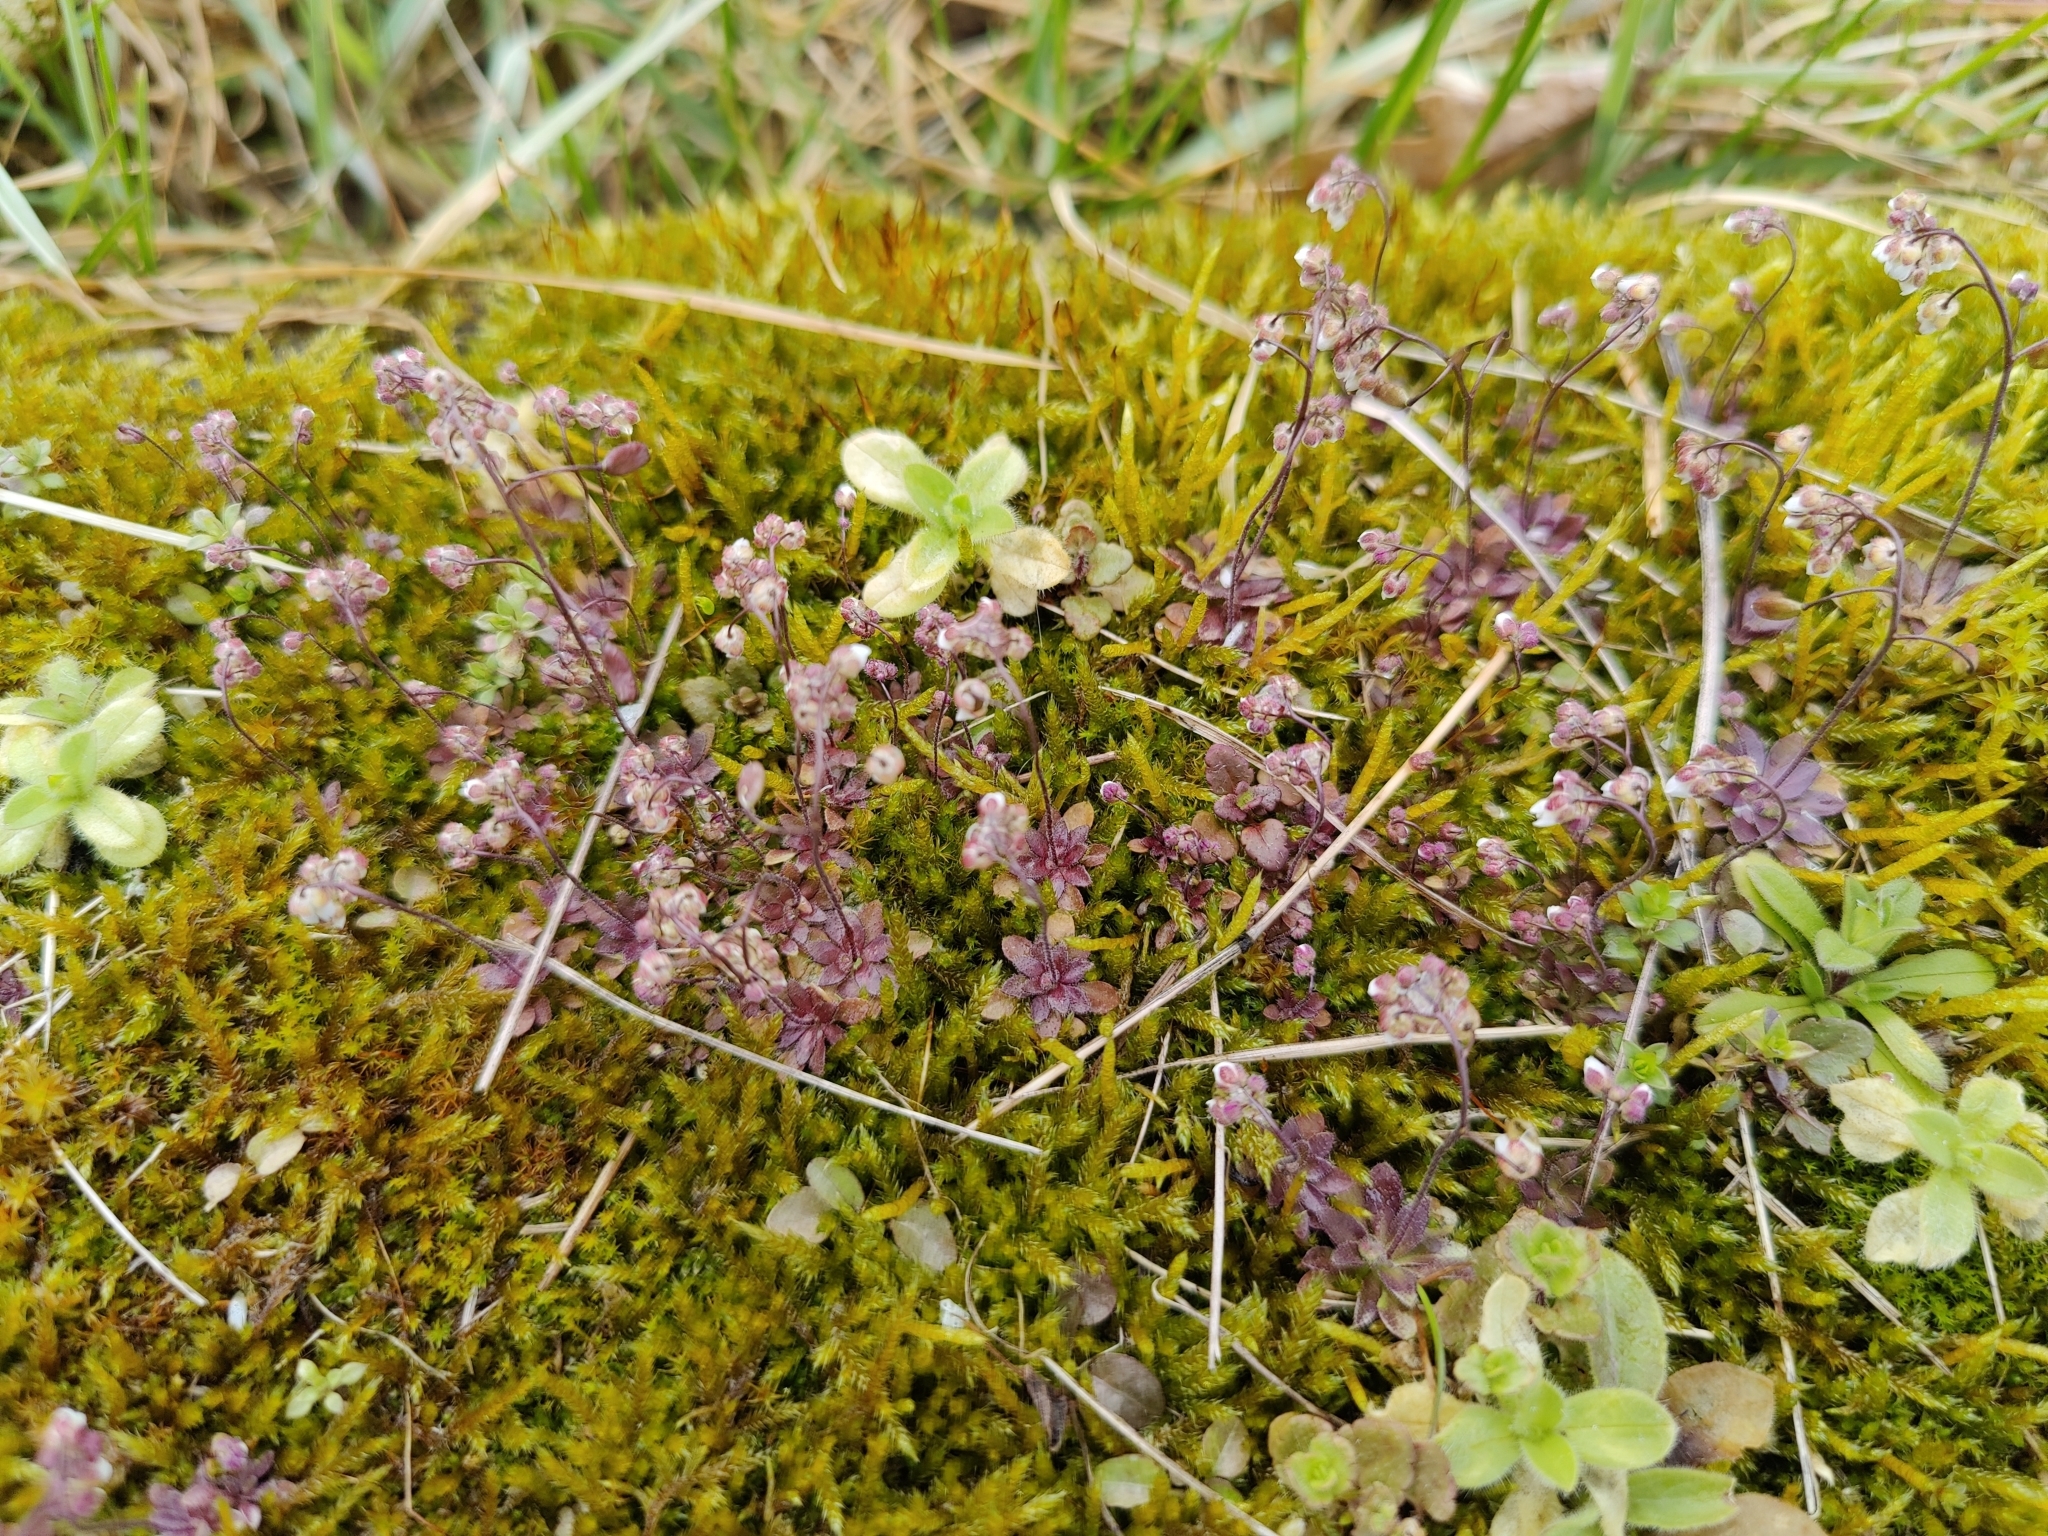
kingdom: Plantae
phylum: Tracheophyta
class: Magnoliopsida
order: Brassicales
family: Brassicaceae
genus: Draba
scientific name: Draba verna
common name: Spring draba
